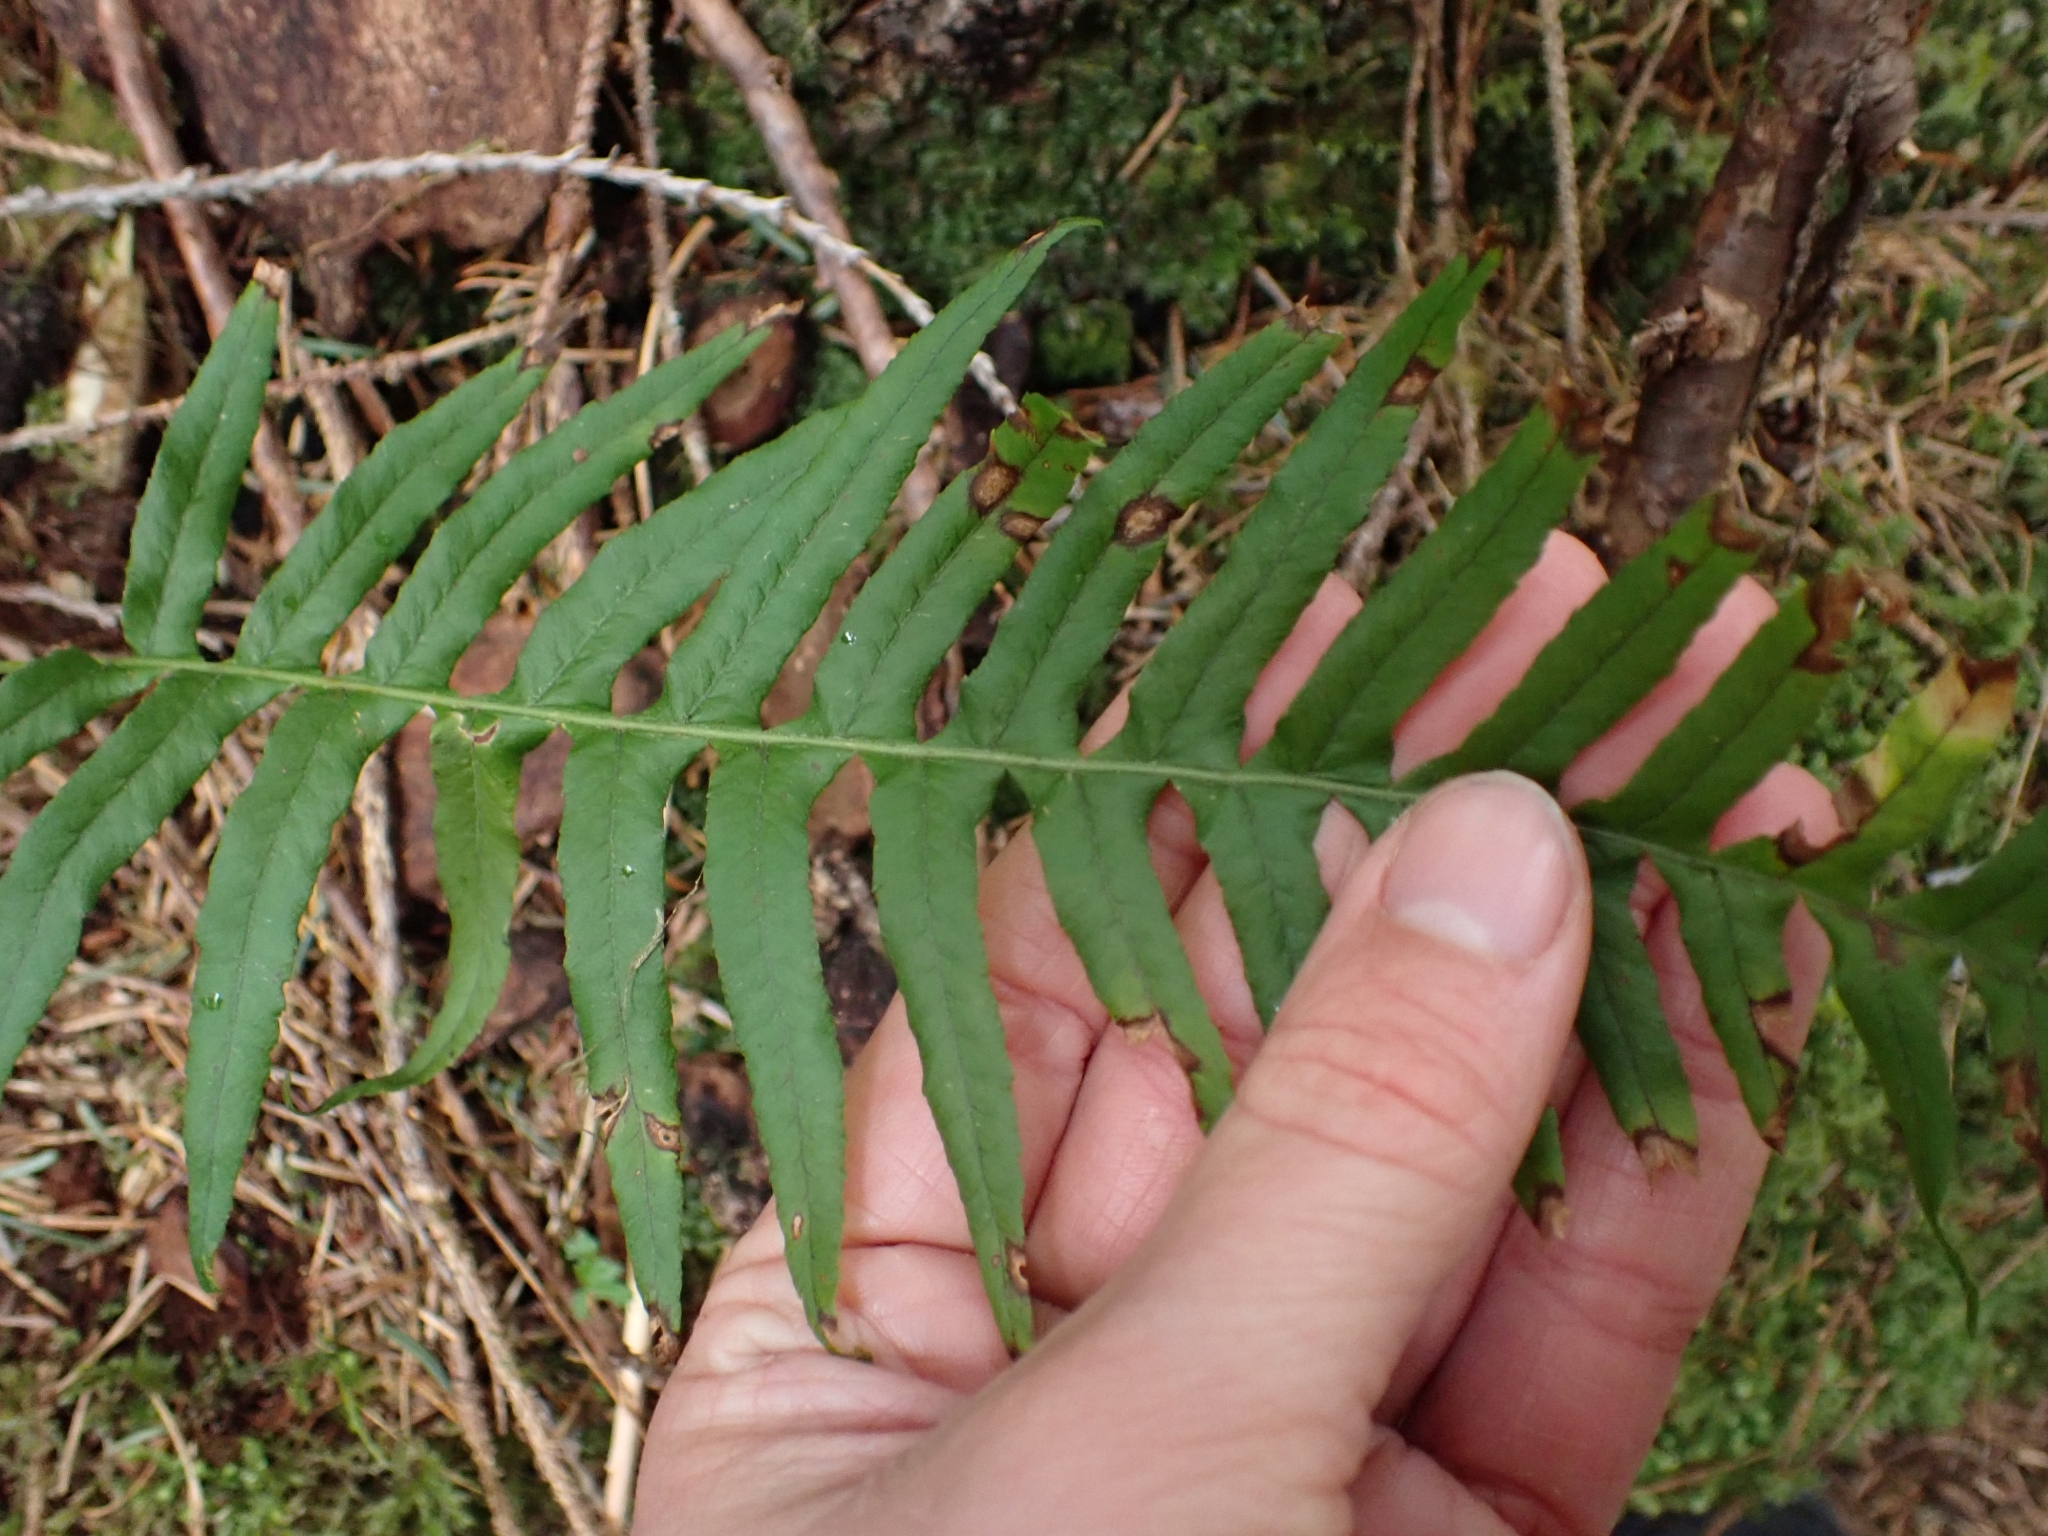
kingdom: Plantae
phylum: Tracheophyta
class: Polypodiopsida
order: Polypodiales
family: Polypodiaceae
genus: Polypodium
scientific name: Polypodium glycyrrhiza
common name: Licorice fern
